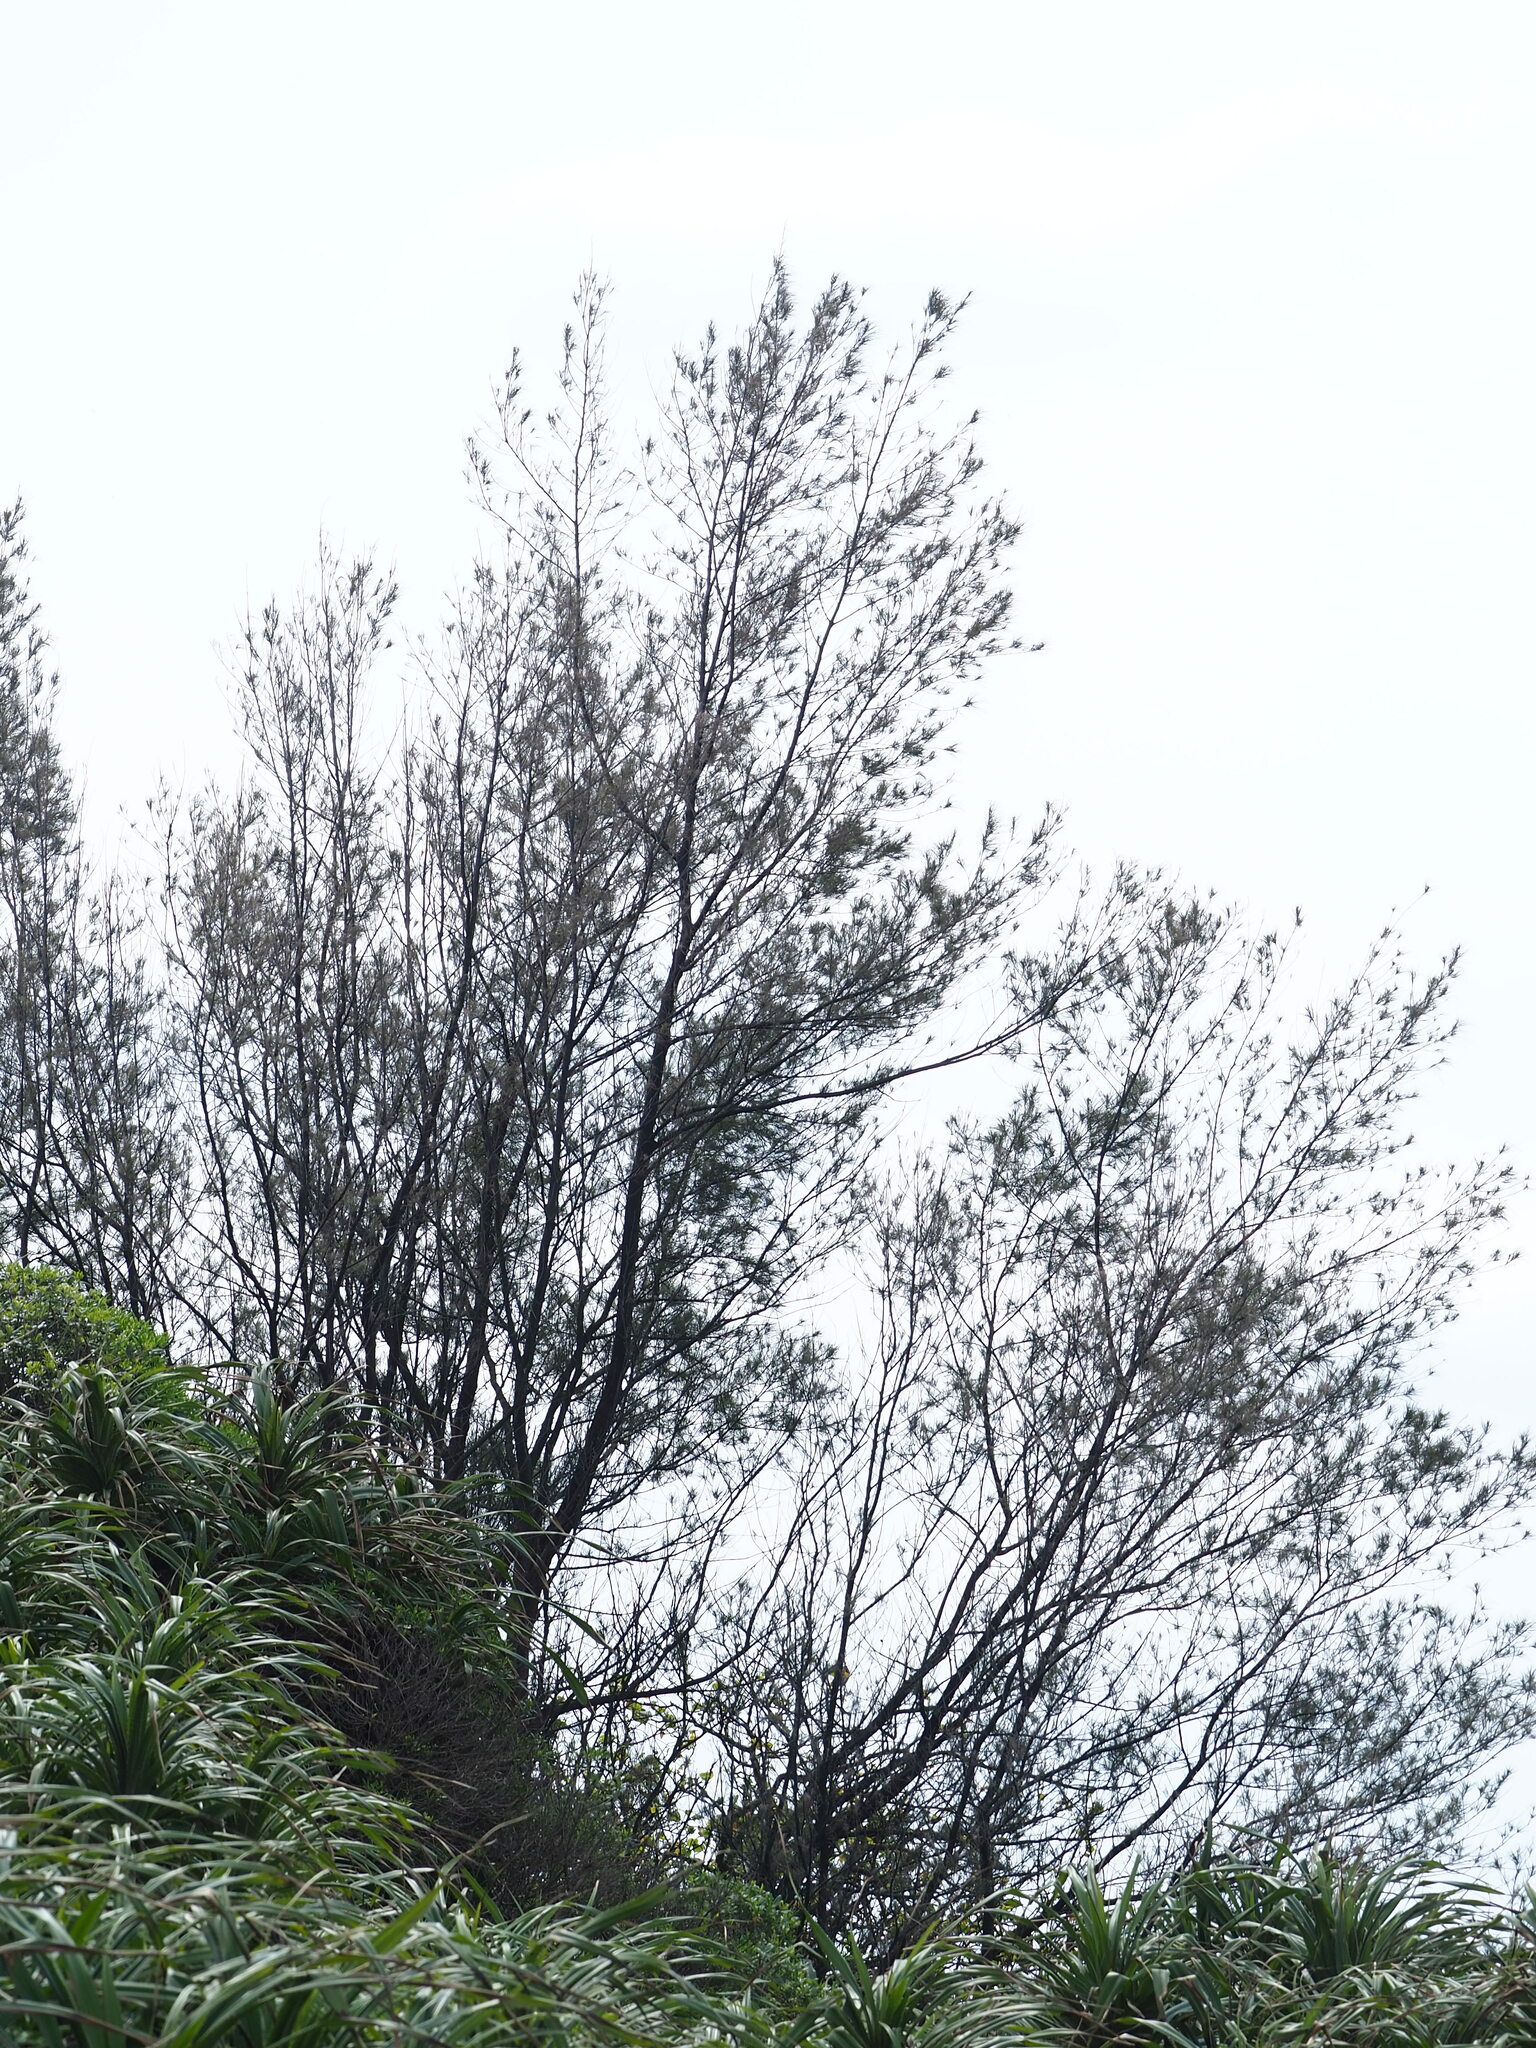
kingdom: Plantae
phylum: Tracheophyta
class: Magnoliopsida
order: Fagales
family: Casuarinaceae
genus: Casuarina
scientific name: Casuarina equisetifolia
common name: Beach sheoak
